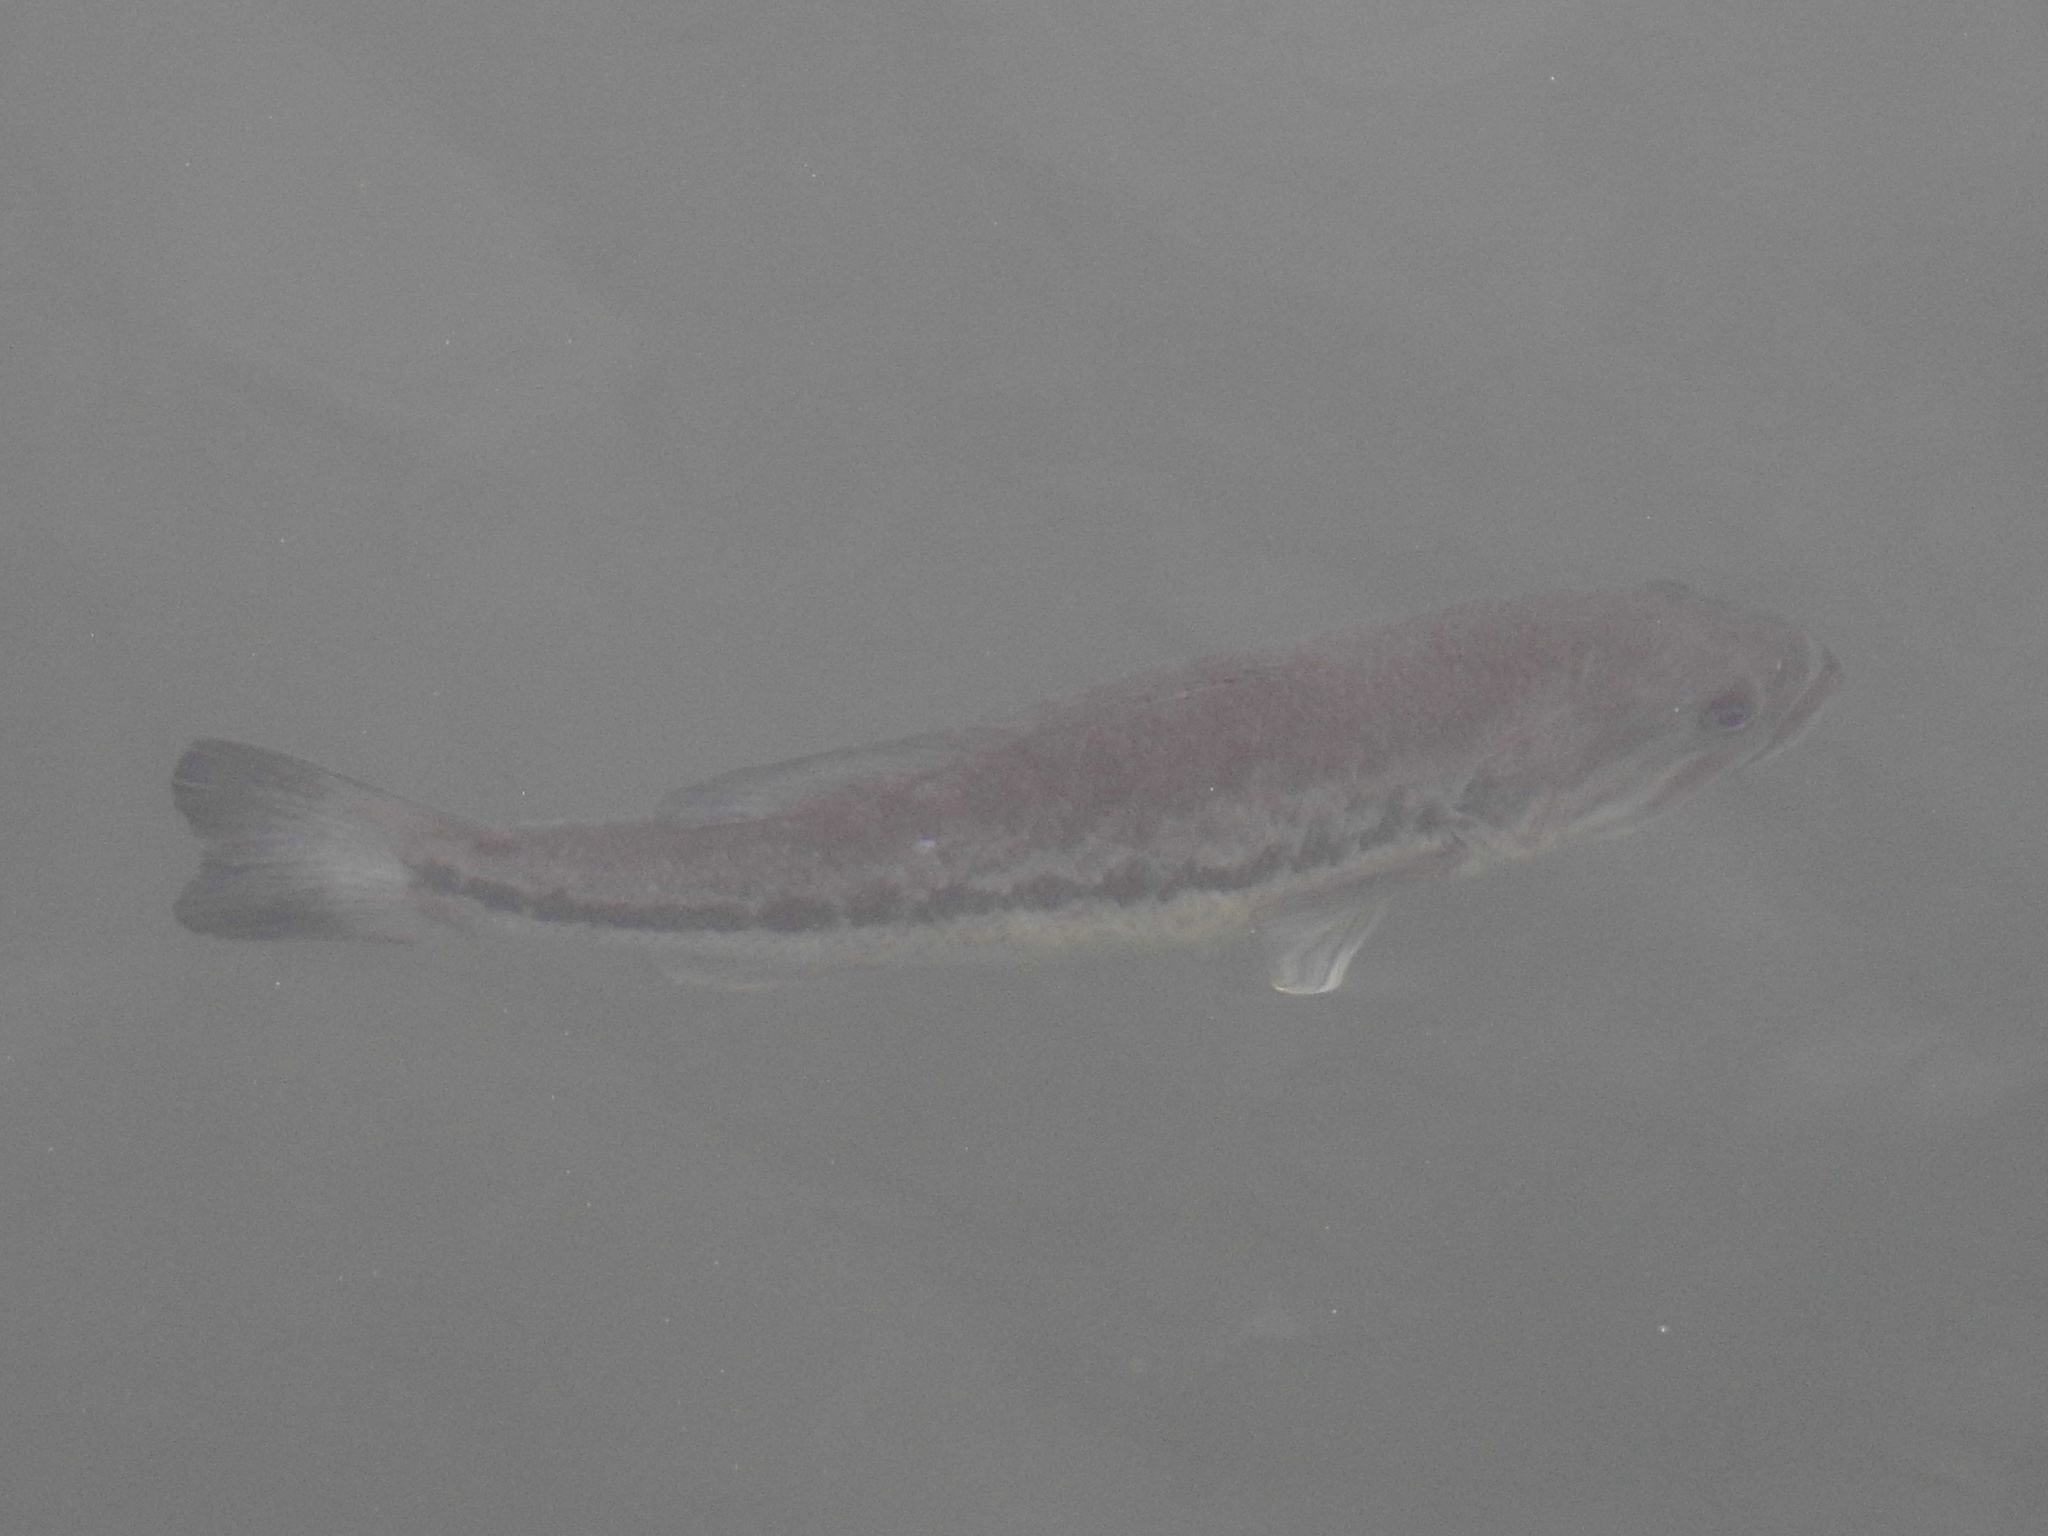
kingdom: Animalia
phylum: Chordata
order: Perciformes
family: Centrarchidae
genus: Micropterus
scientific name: Micropterus
